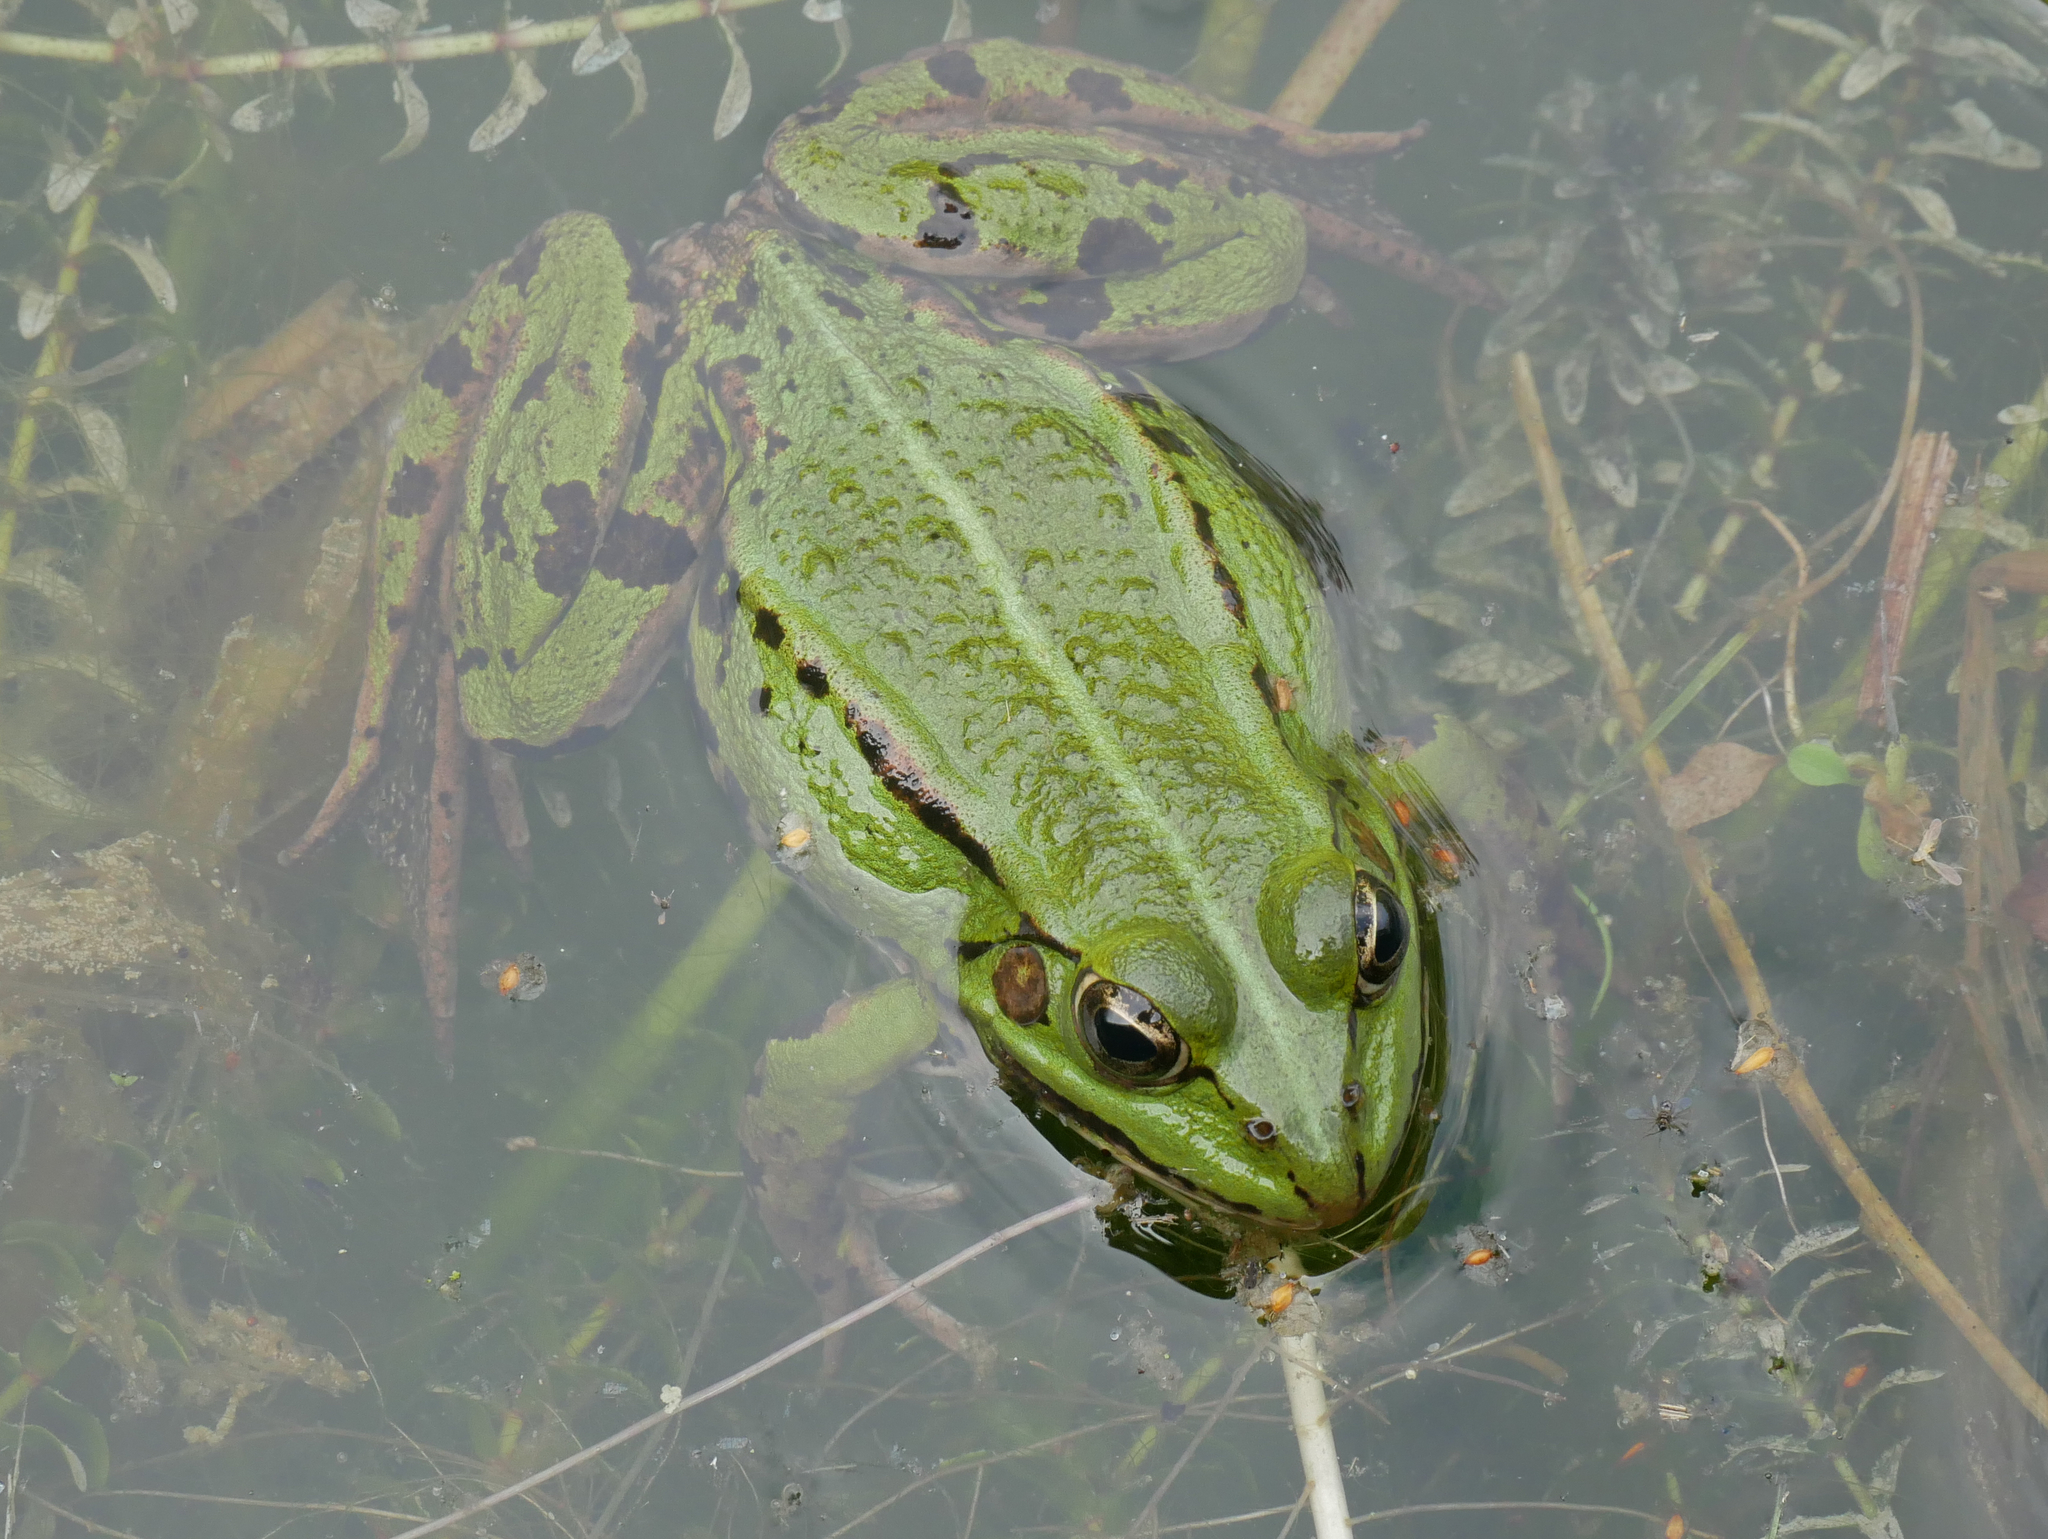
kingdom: Animalia
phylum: Chordata
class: Amphibia
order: Anura
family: Ranidae
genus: Pelophylax
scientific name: Pelophylax
